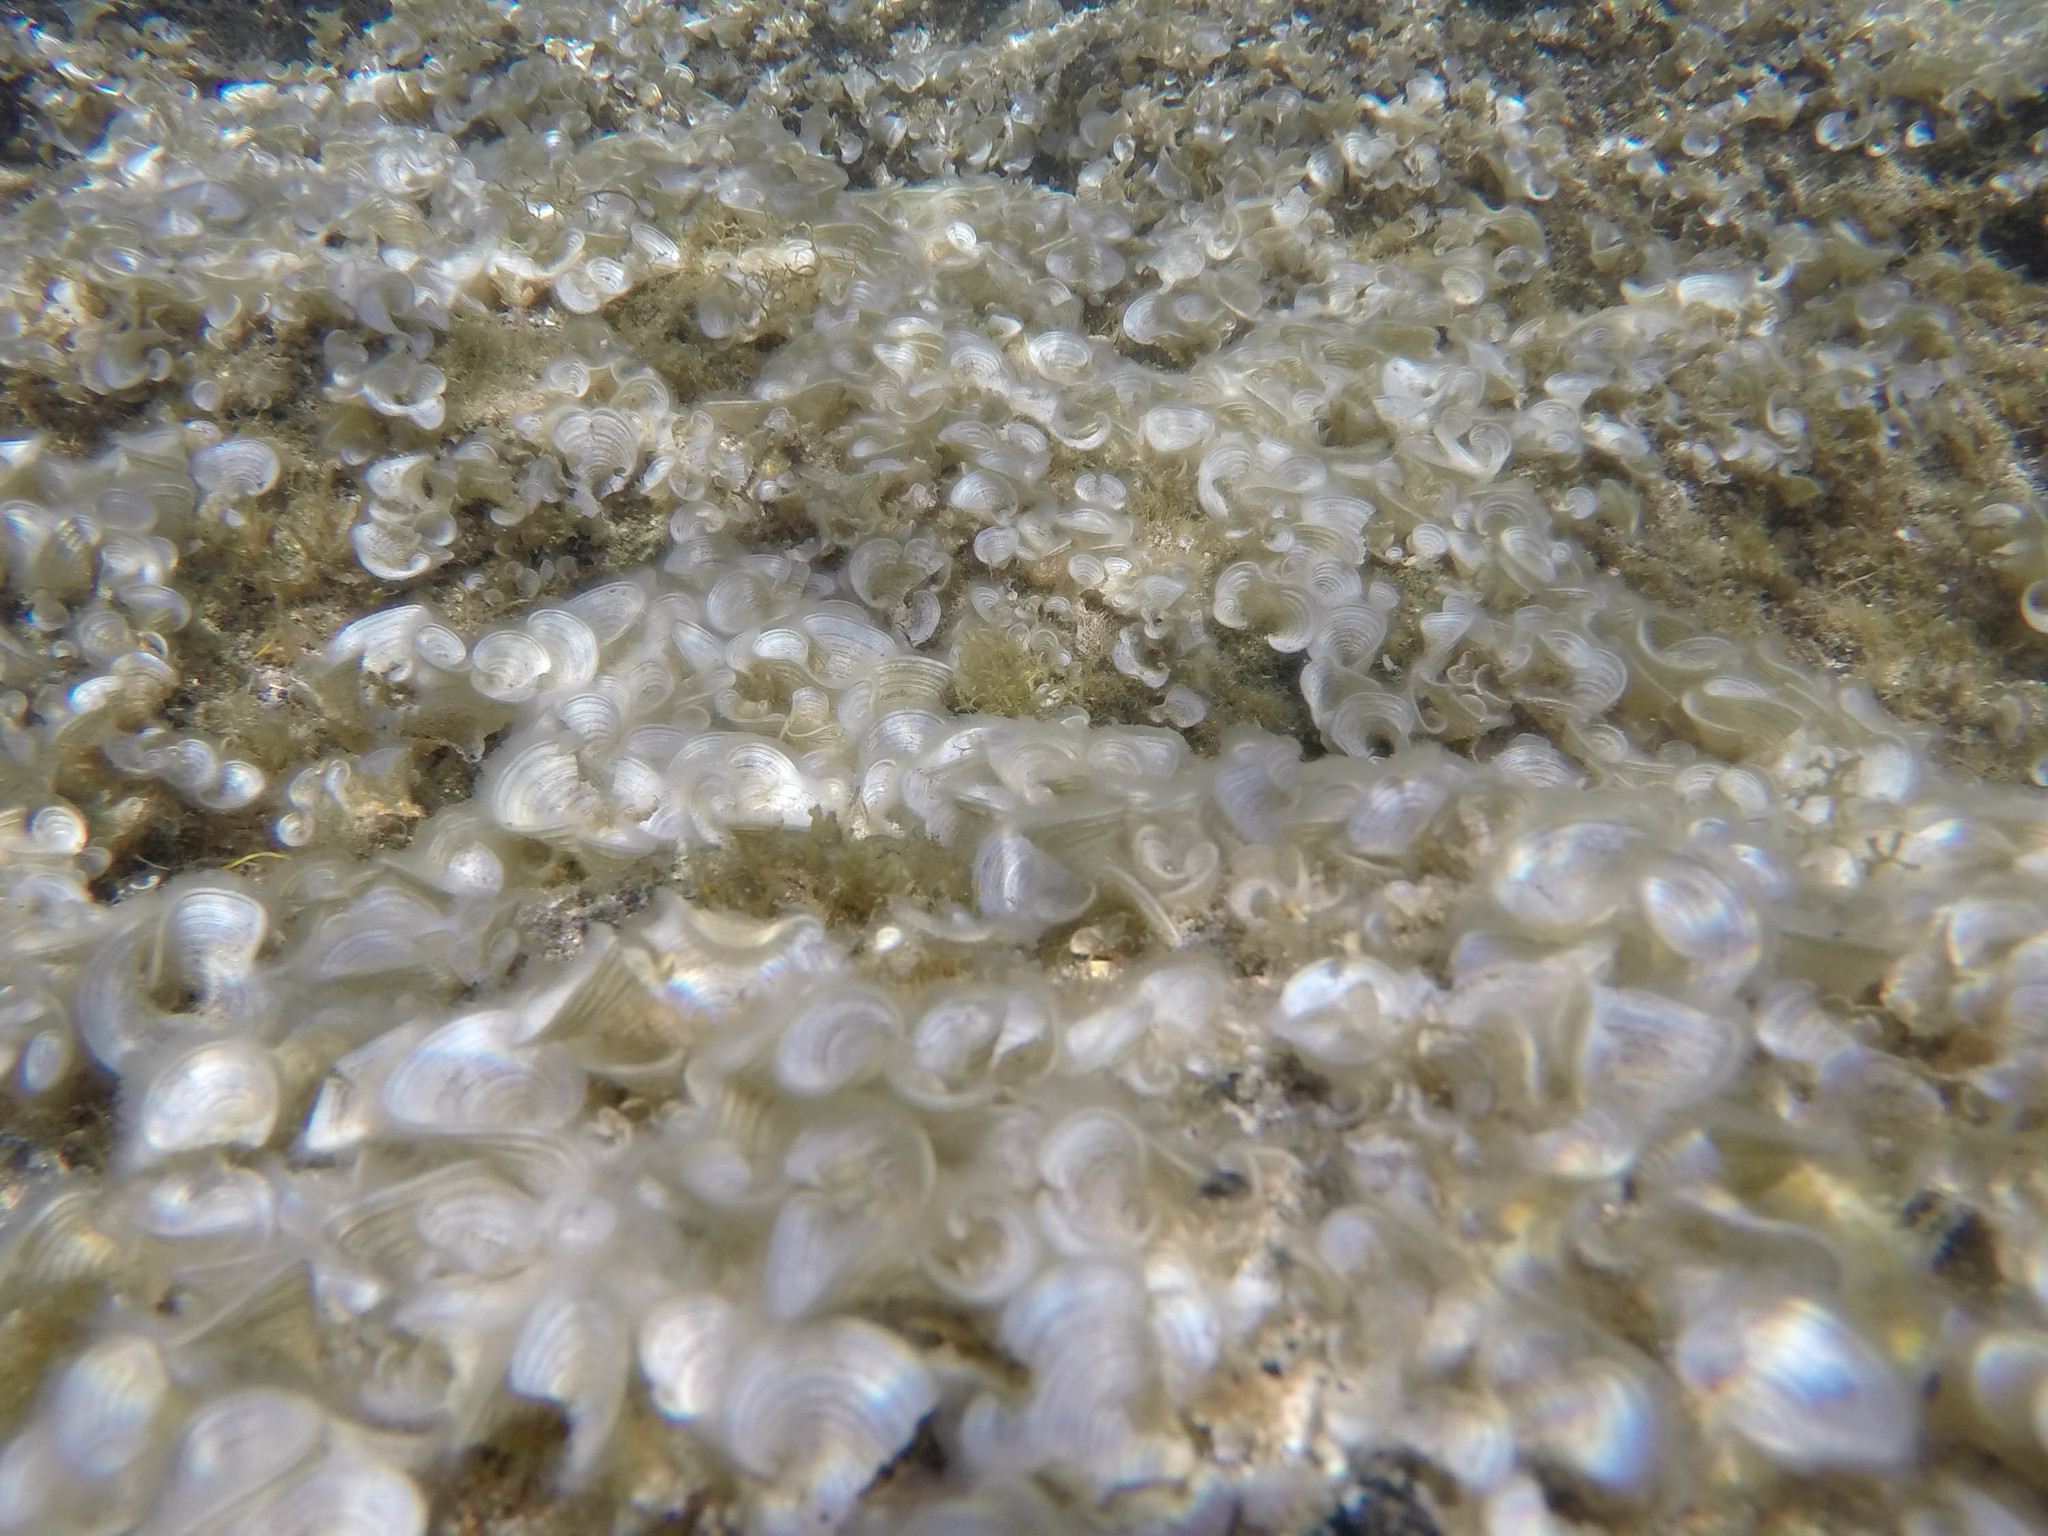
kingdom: Chromista
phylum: Ochrophyta
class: Phaeophyceae
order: Dictyotales
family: Dictyotaceae
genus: Padina
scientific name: Padina sanctae-crucis
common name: White scroll algae
